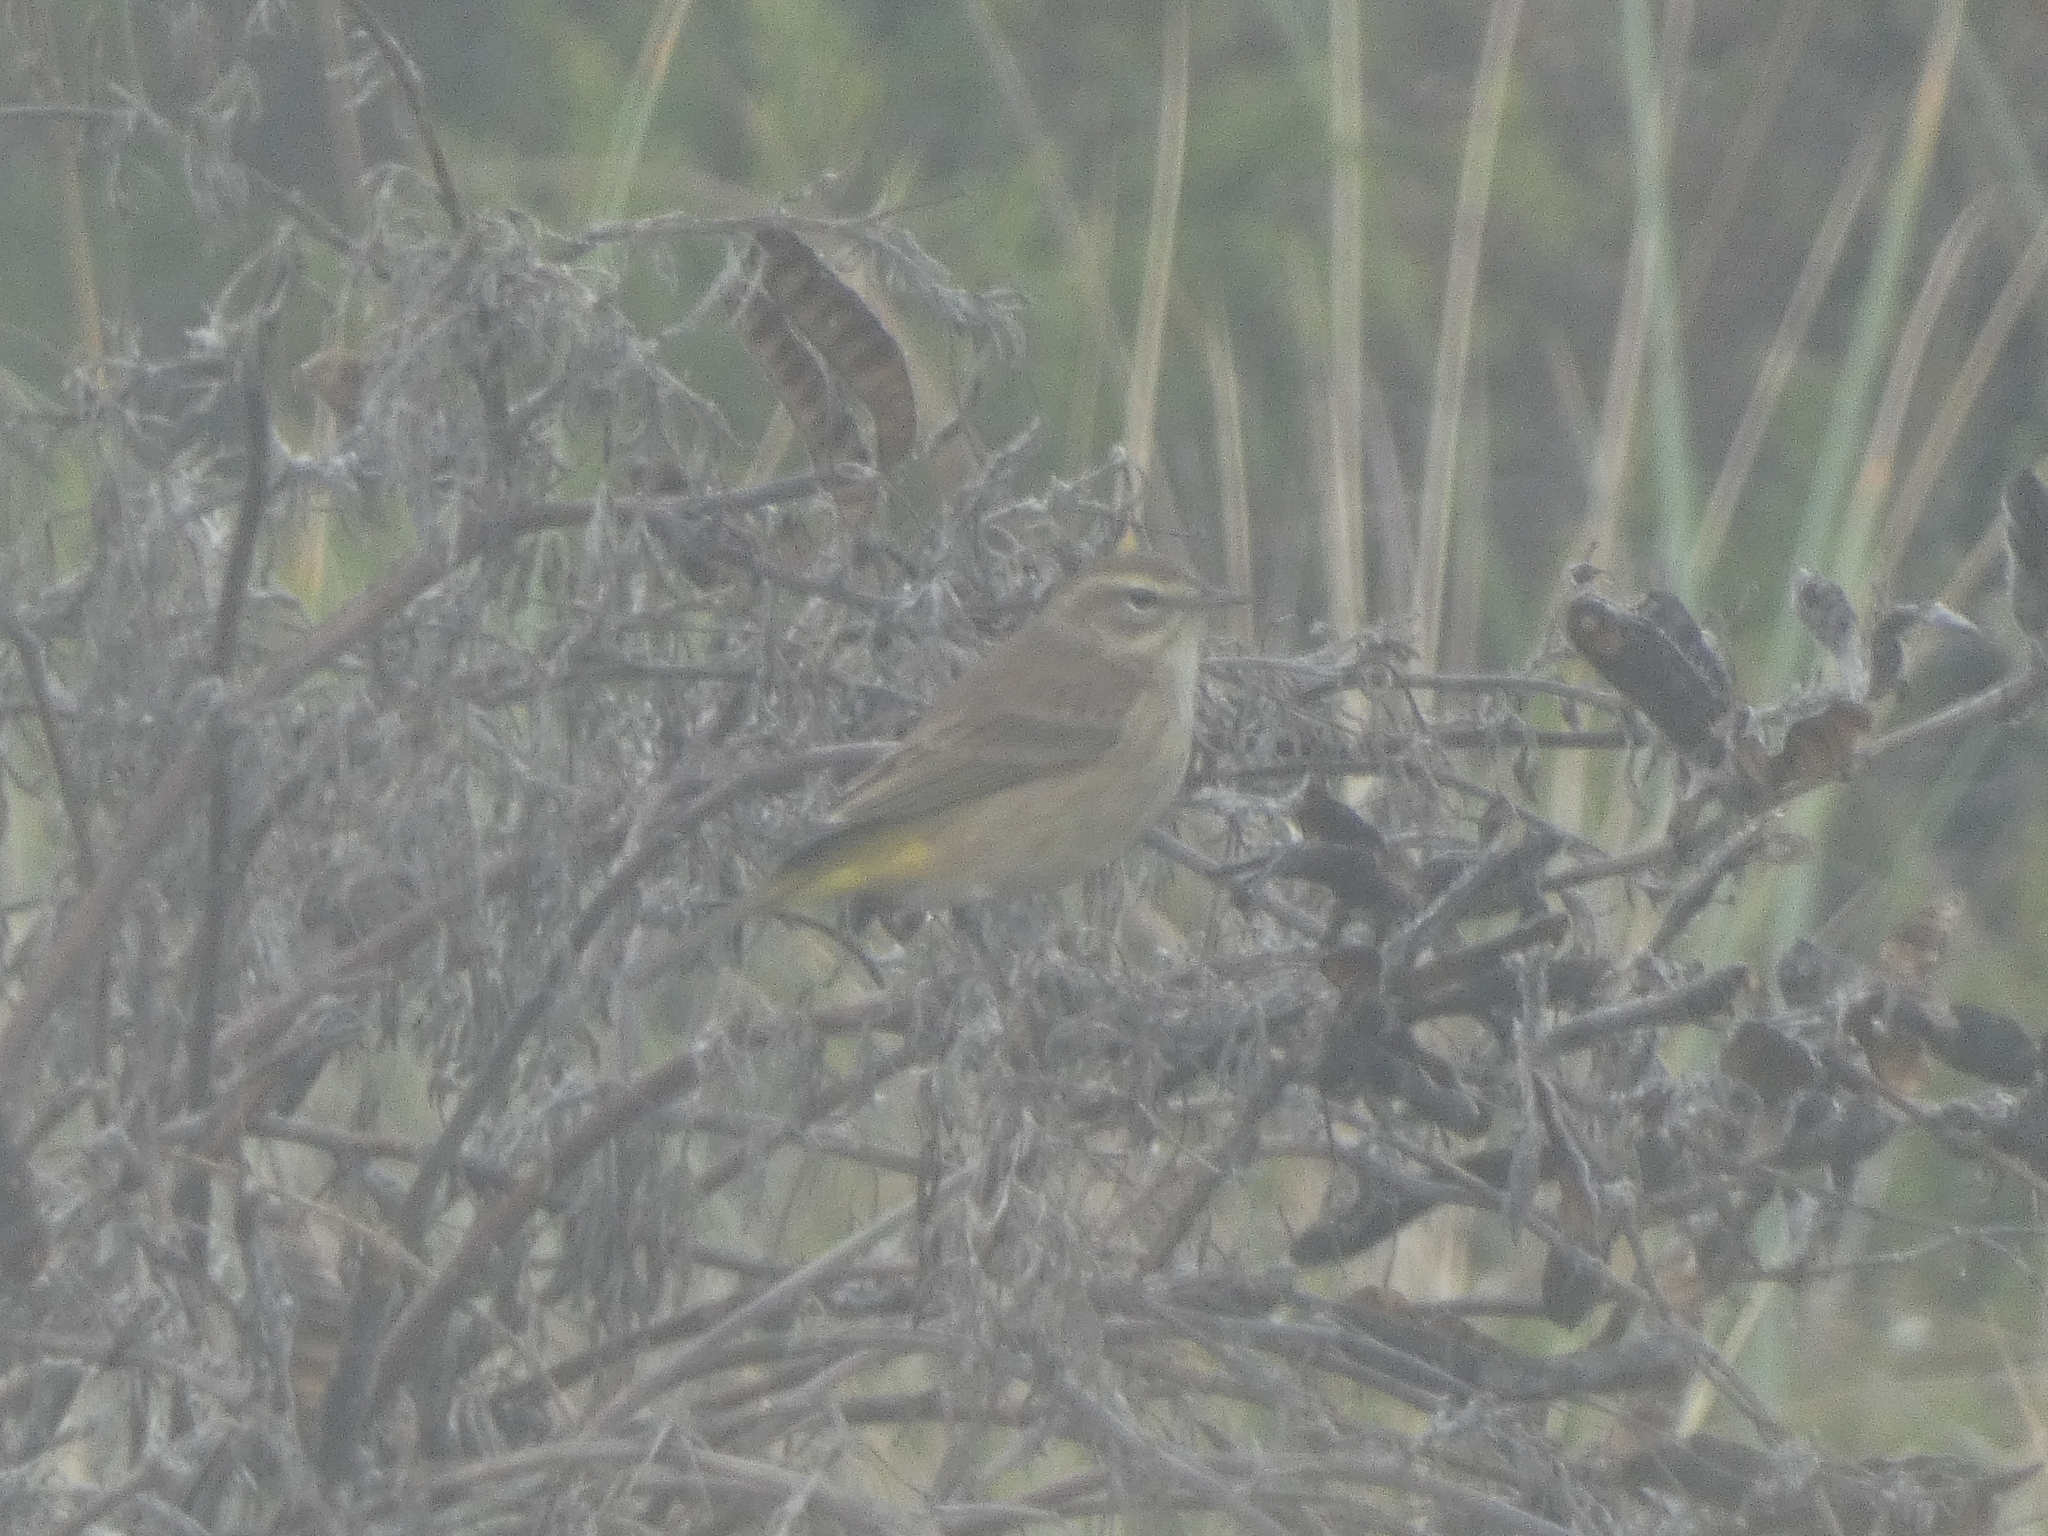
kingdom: Animalia
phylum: Chordata
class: Aves
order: Passeriformes
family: Parulidae
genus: Setophaga
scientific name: Setophaga palmarum
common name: Palm warbler
